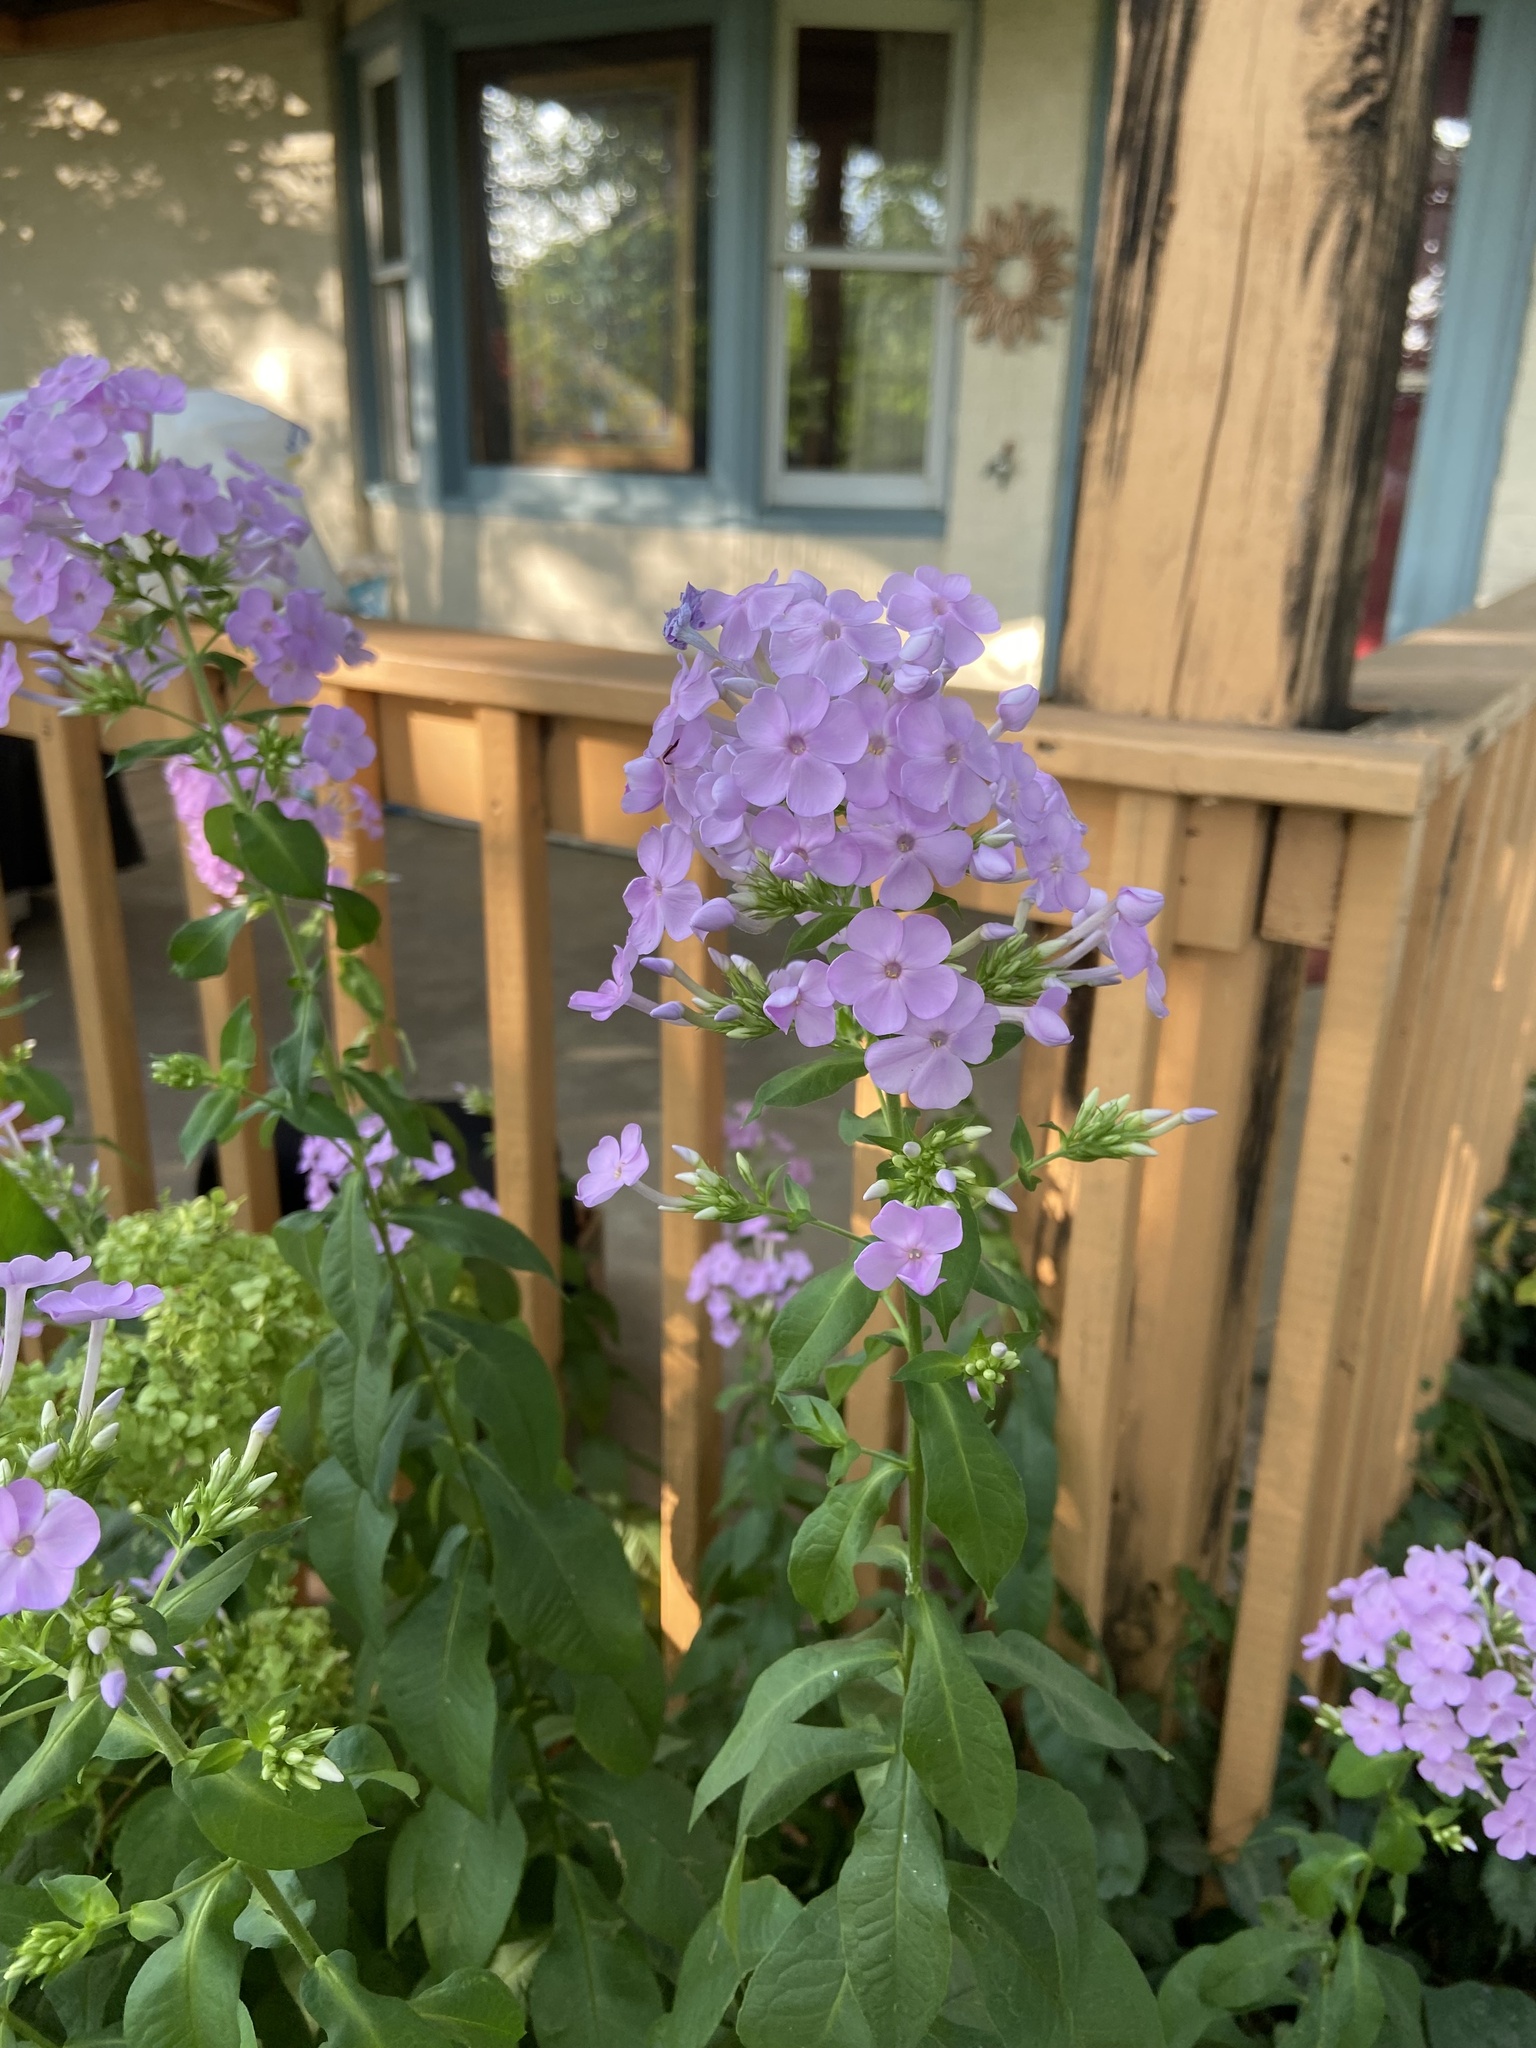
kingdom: Plantae
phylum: Tracheophyta
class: Magnoliopsida
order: Ericales
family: Polemoniaceae
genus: Phlox
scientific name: Phlox paniculata
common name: Fall phlox
